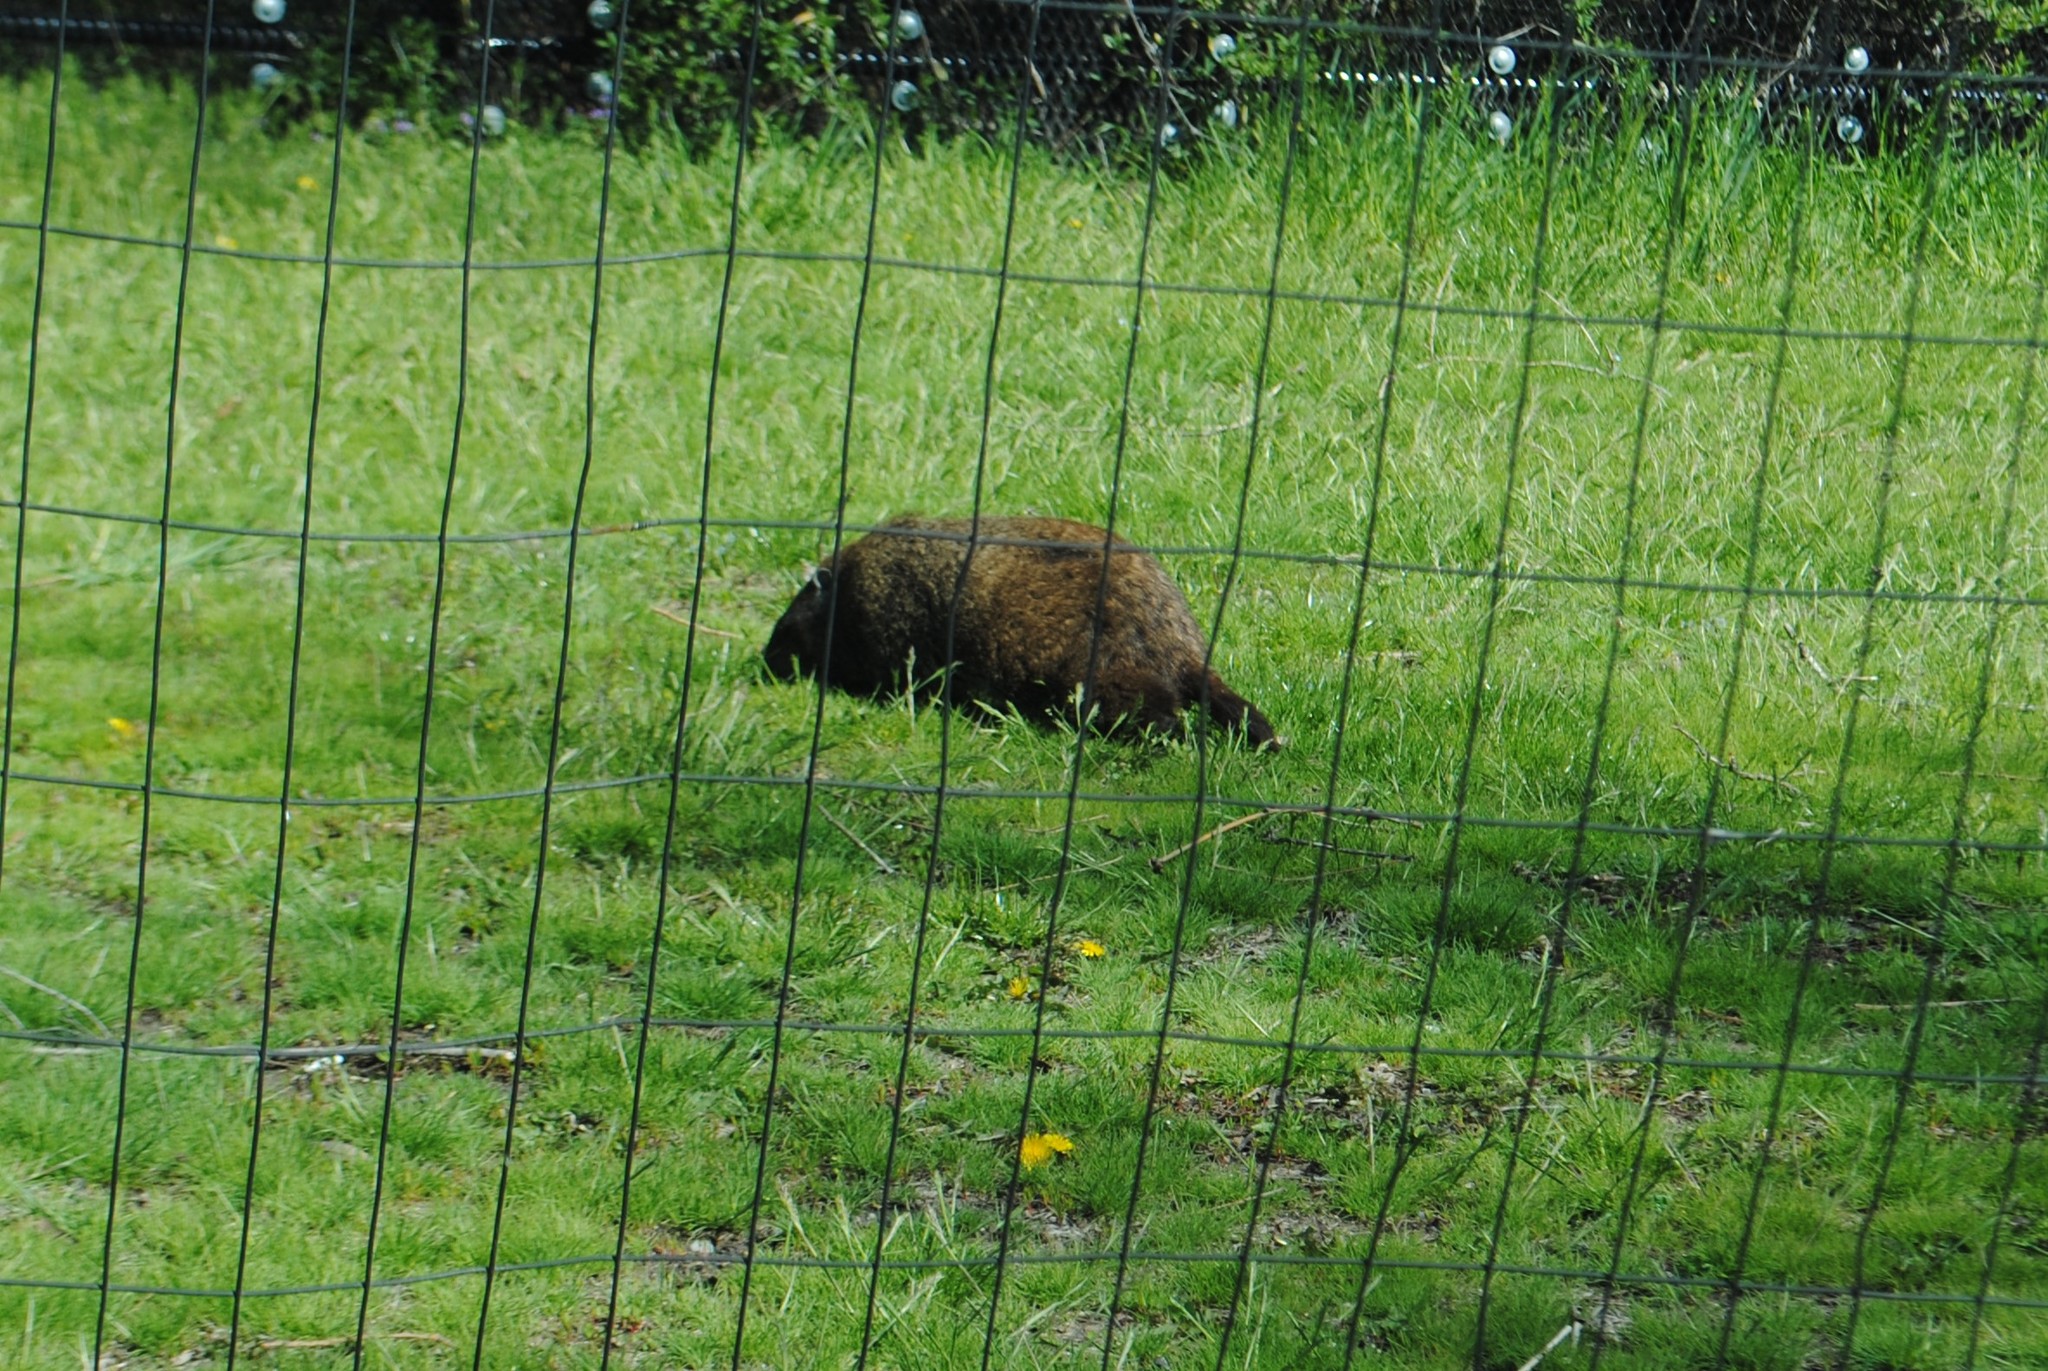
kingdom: Animalia
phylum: Chordata
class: Mammalia
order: Rodentia
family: Sciuridae
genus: Marmota
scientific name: Marmota monax
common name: Groundhog
